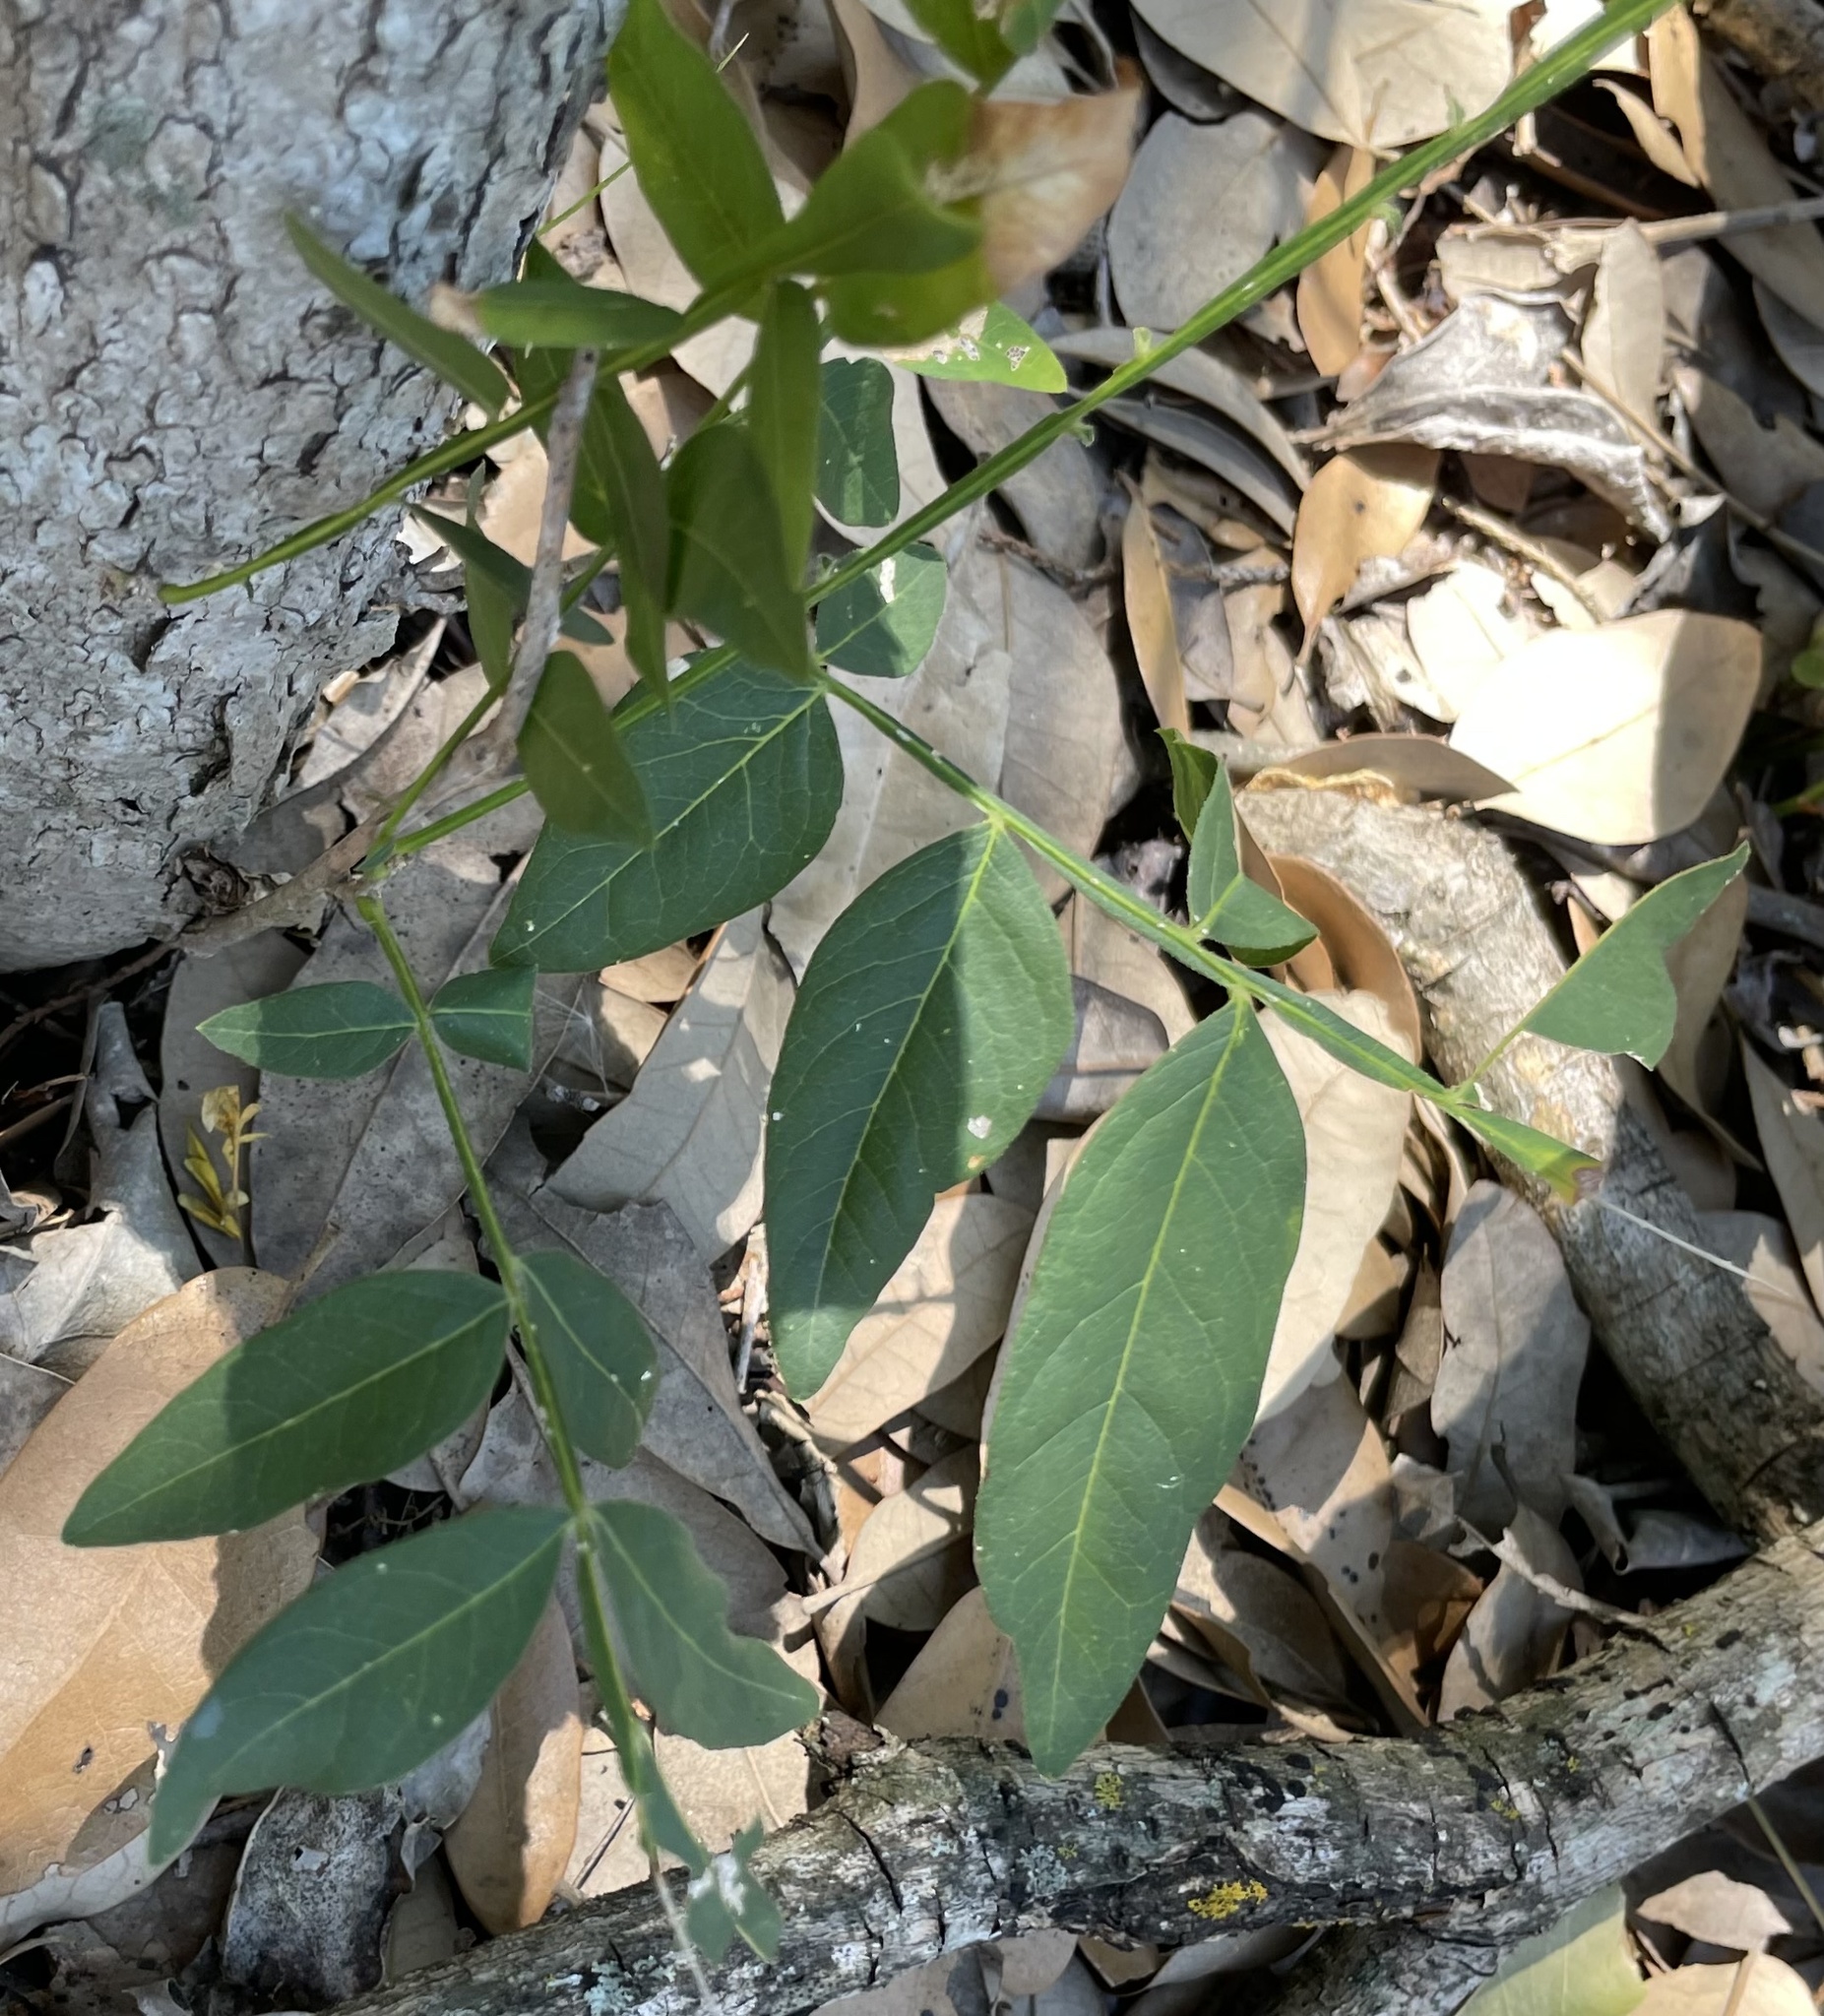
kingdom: Plantae
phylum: Tracheophyta
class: Magnoliopsida
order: Sapindales
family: Sapindaceae
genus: Sapindus
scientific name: Sapindus drummondii
